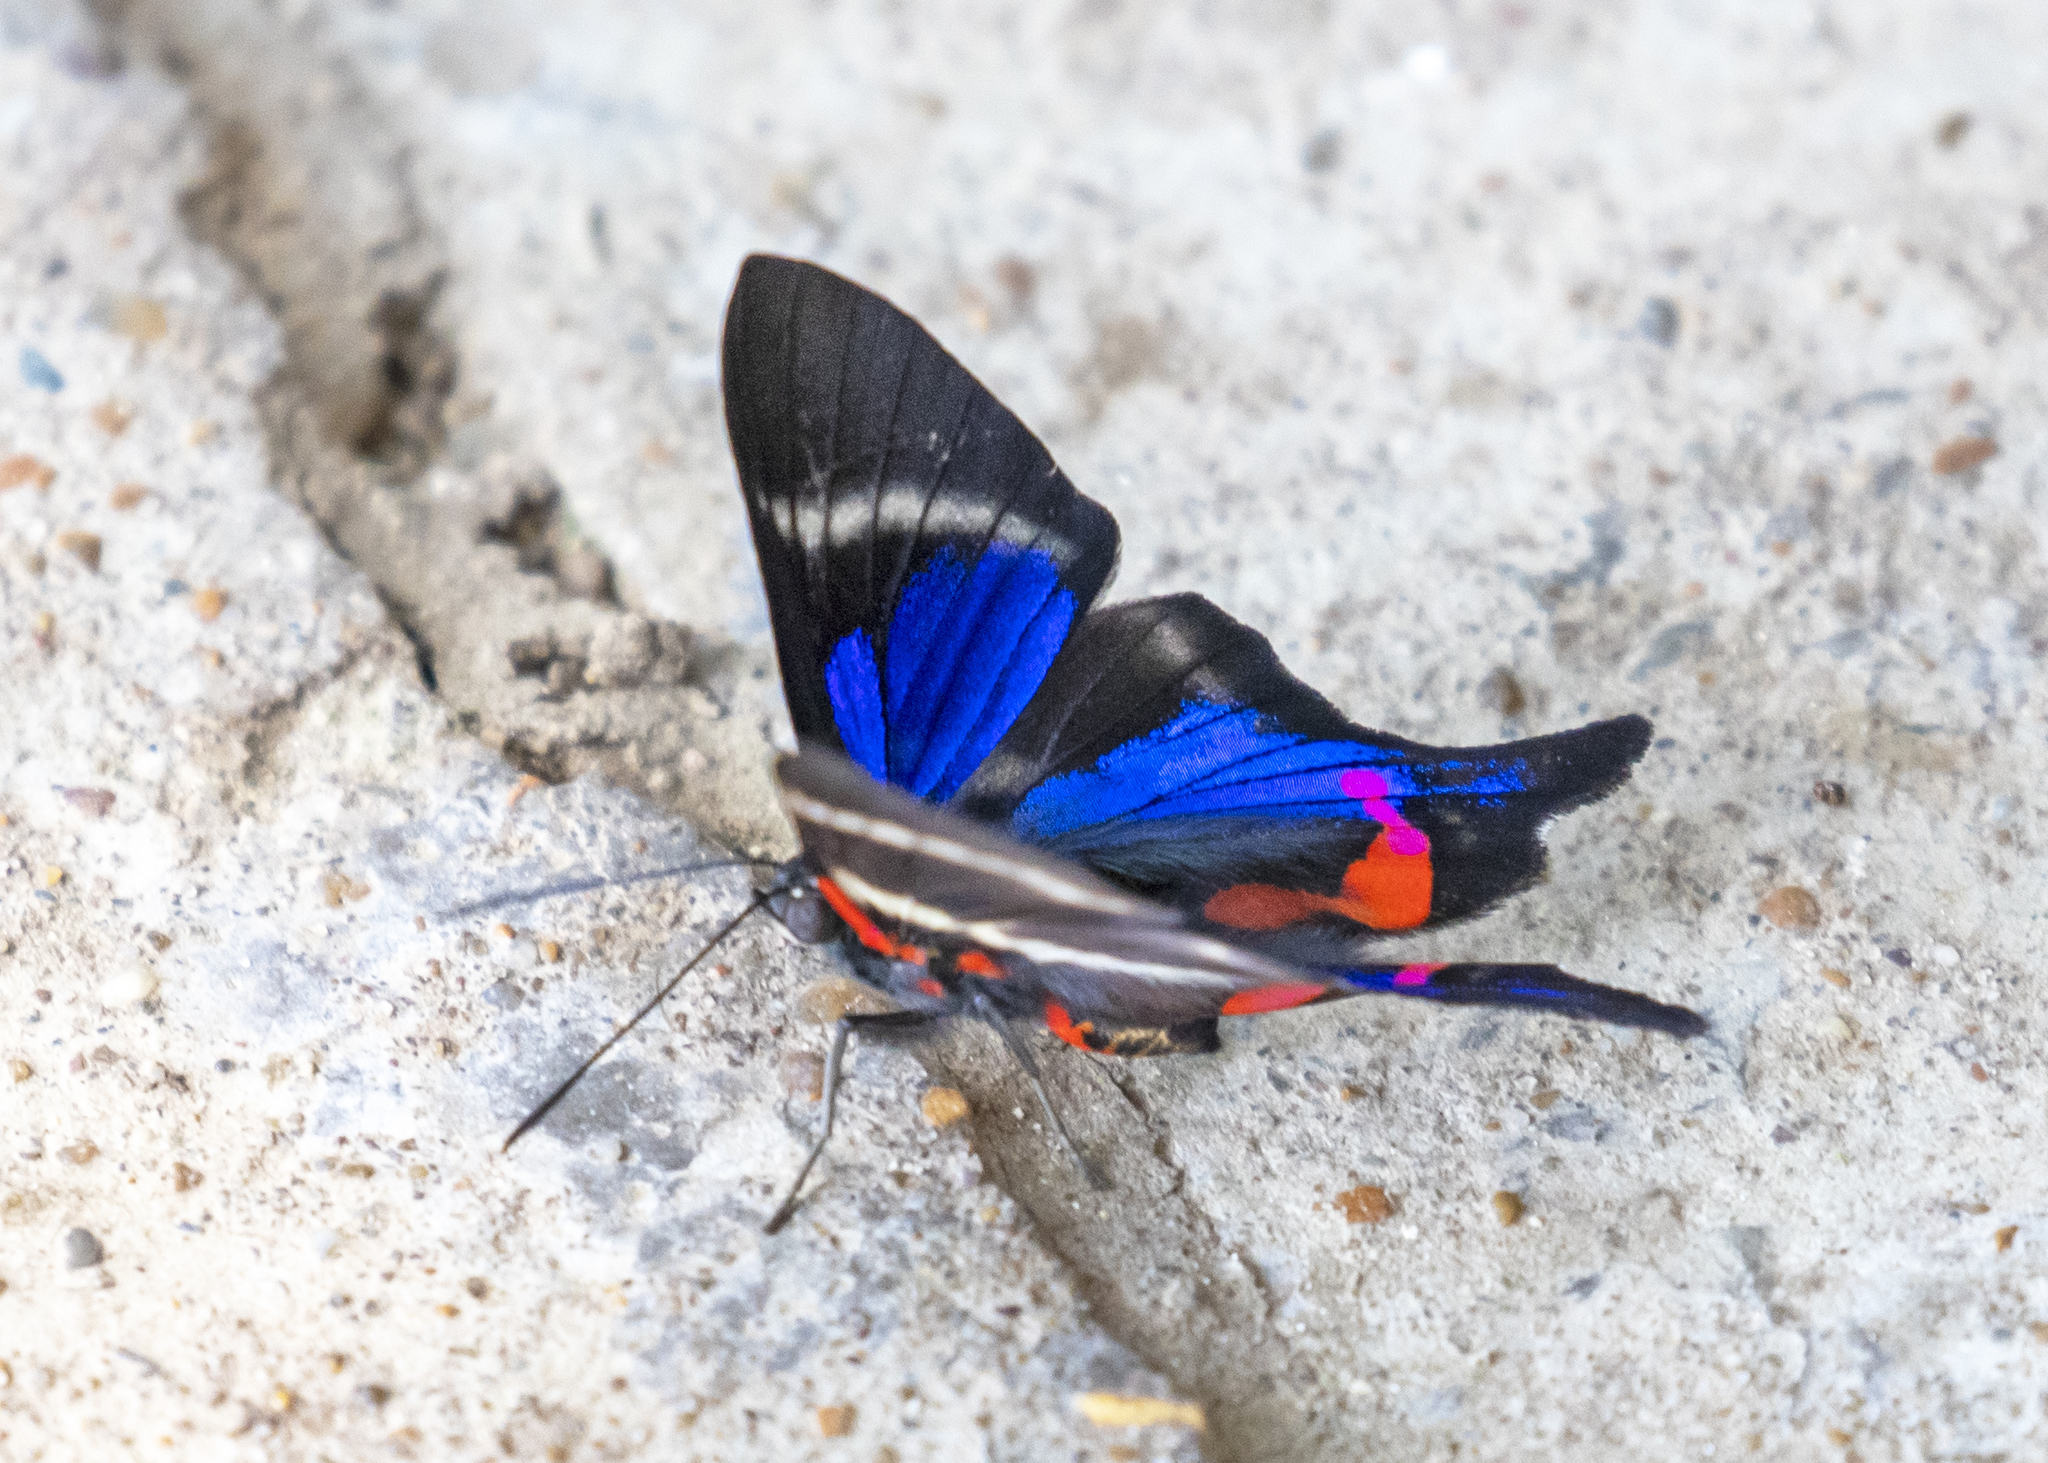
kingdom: Animalia
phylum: Arthropoda
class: Insecta
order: Lepidoptera
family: Riodinidae
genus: Rhetus
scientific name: Rhetus periander
